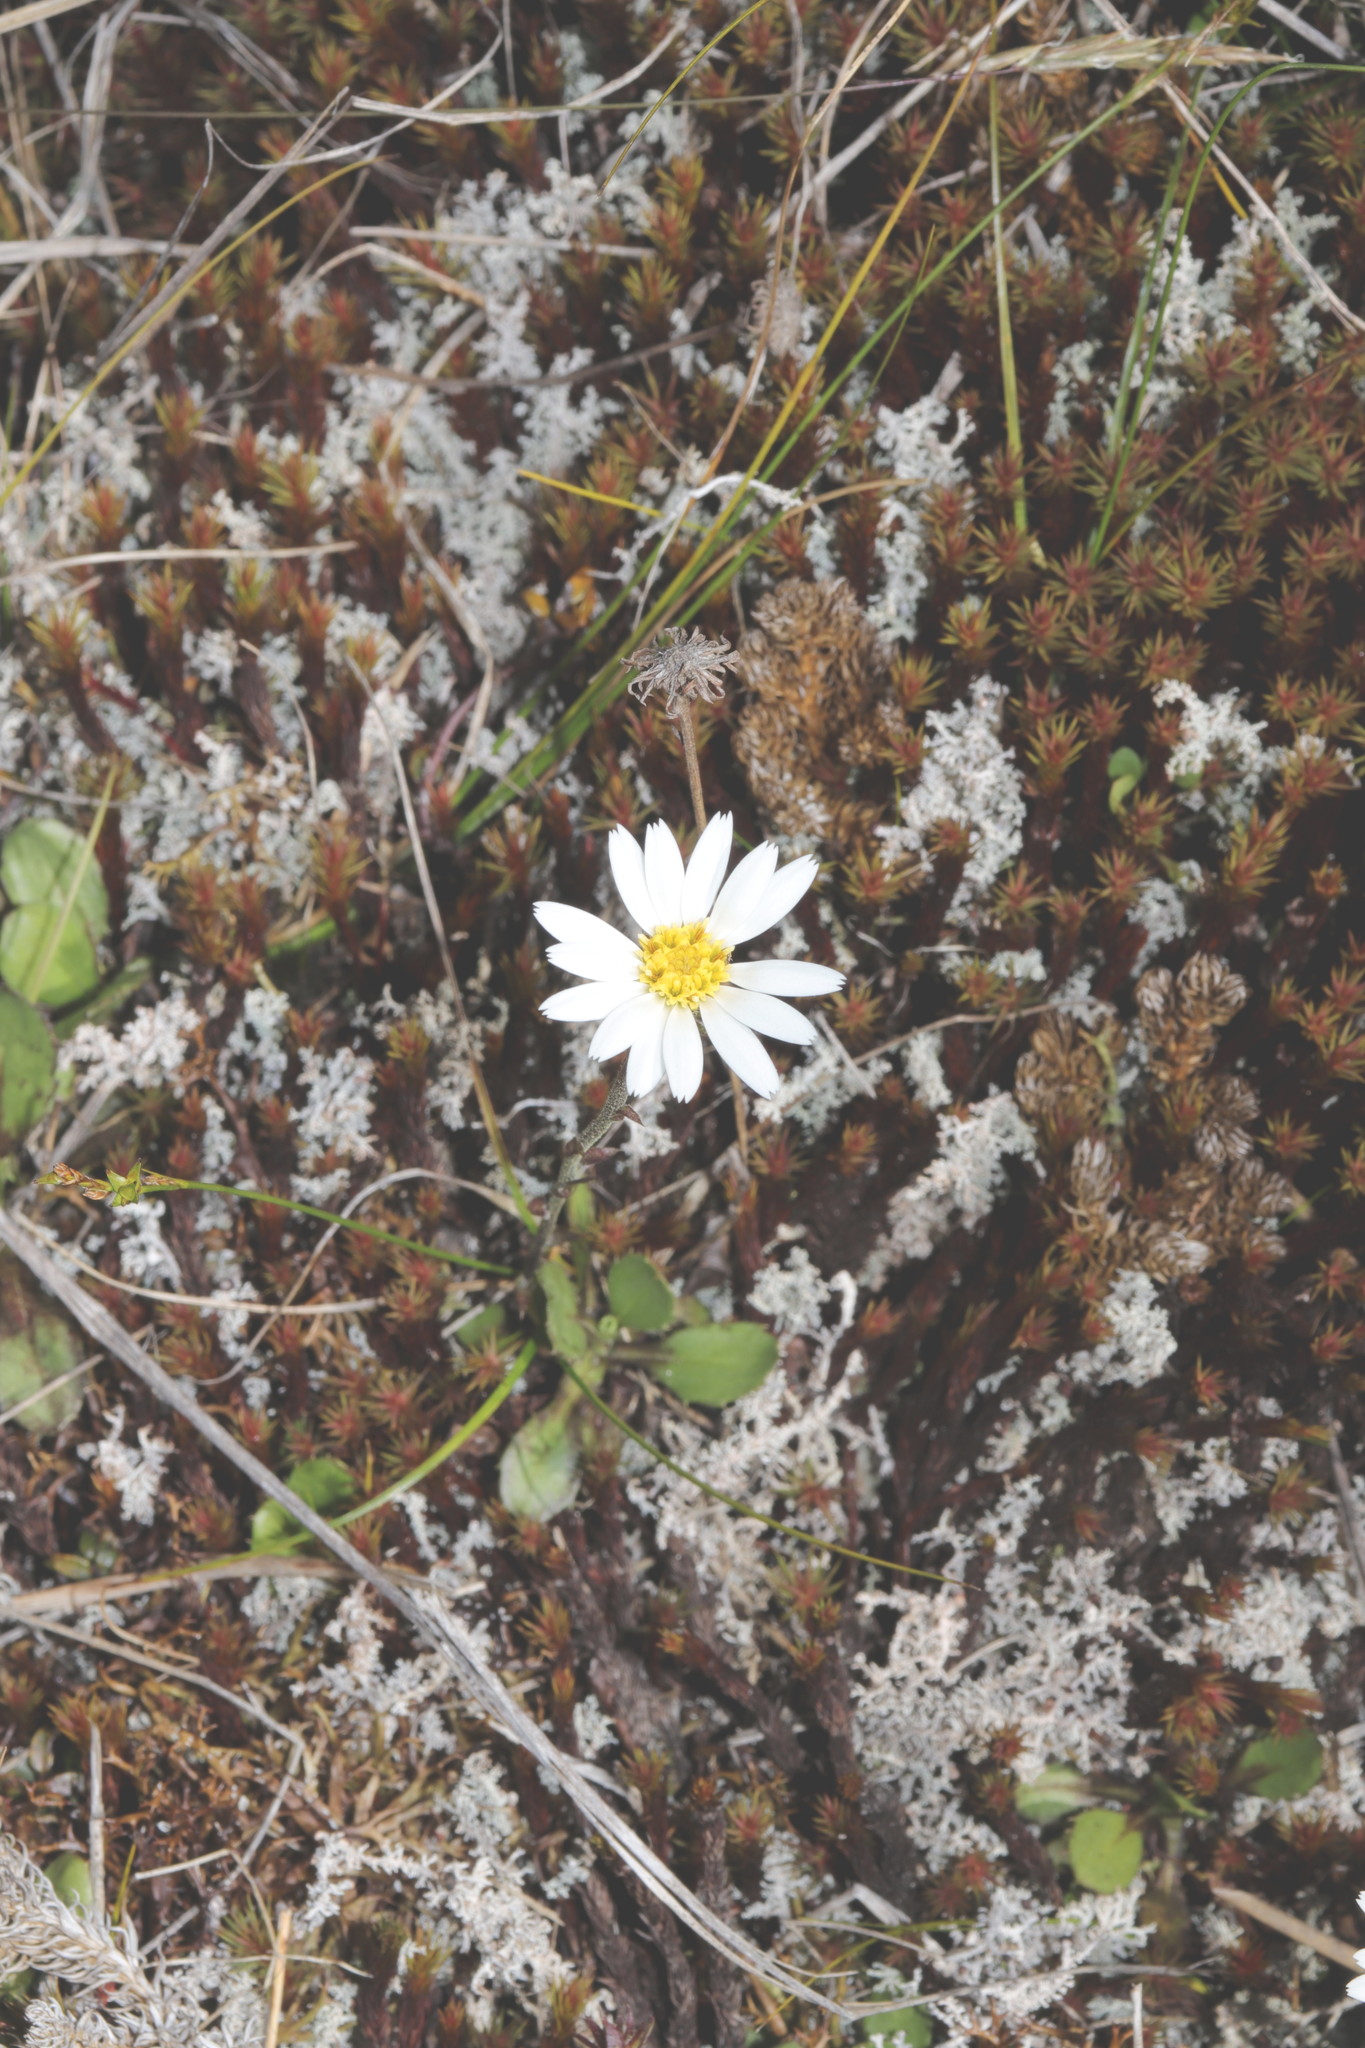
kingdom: Plantae
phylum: Tracheophyta
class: Magnoliopsida
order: Asterales
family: Asteraceae
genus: Celmisia
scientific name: Celmisia glandulosa
